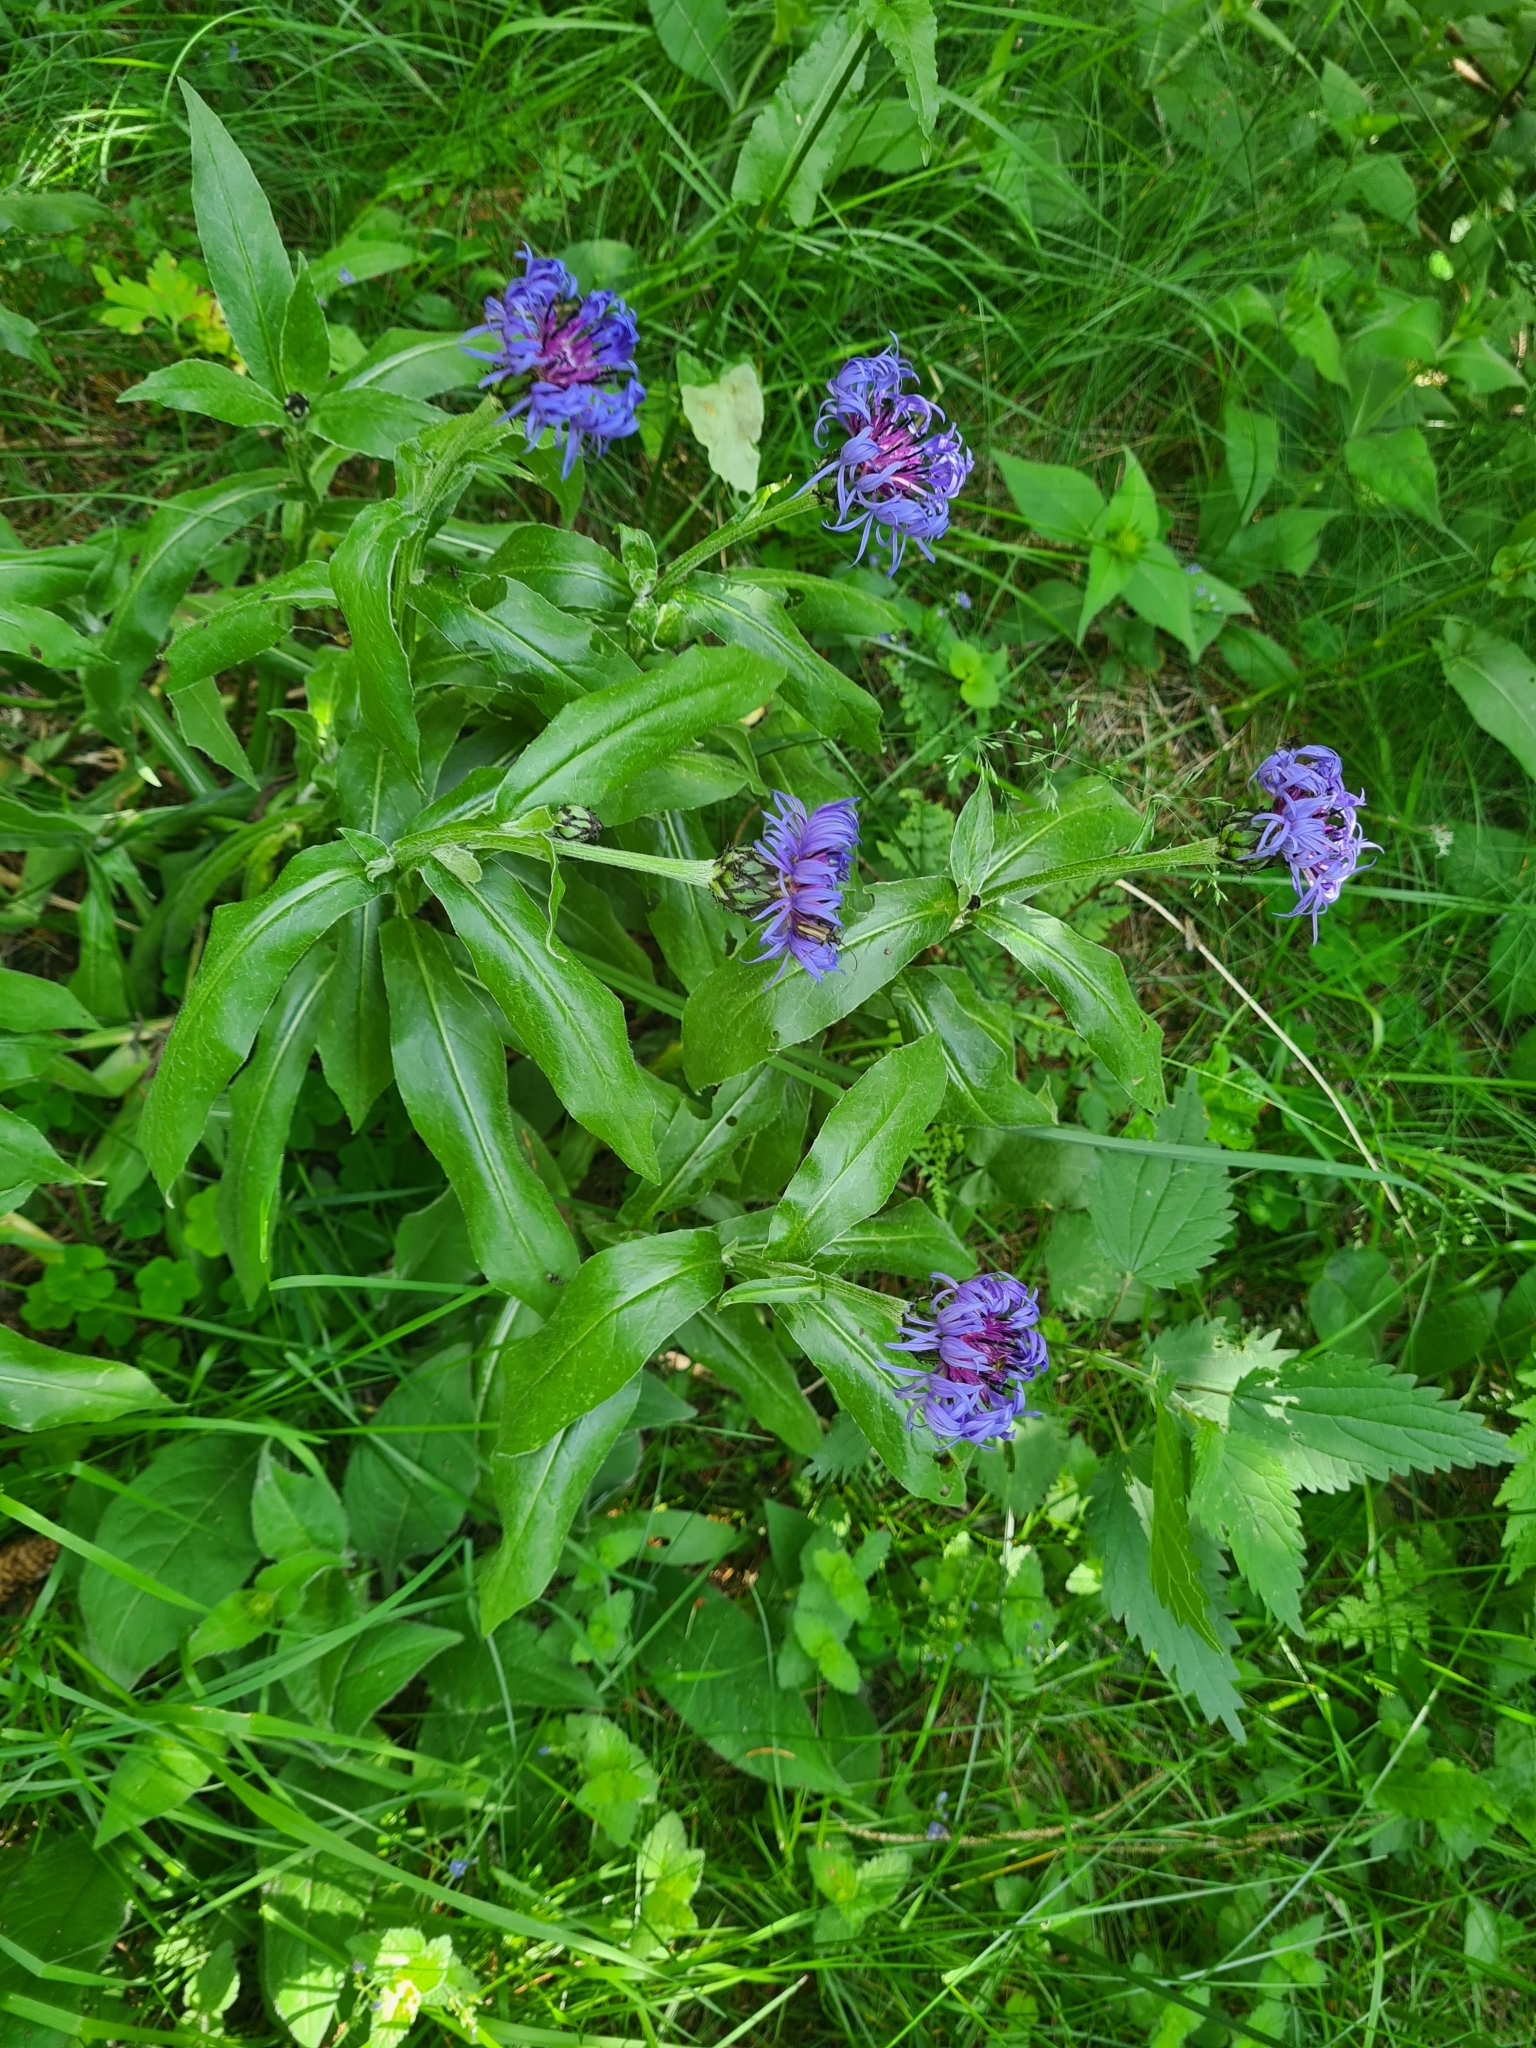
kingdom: Plantae
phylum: Tracheophyta
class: Magnoliopsida
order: Asterales
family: Asteraceae
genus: Centaurea
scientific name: Centaurea montana
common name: Perennial cornflower
